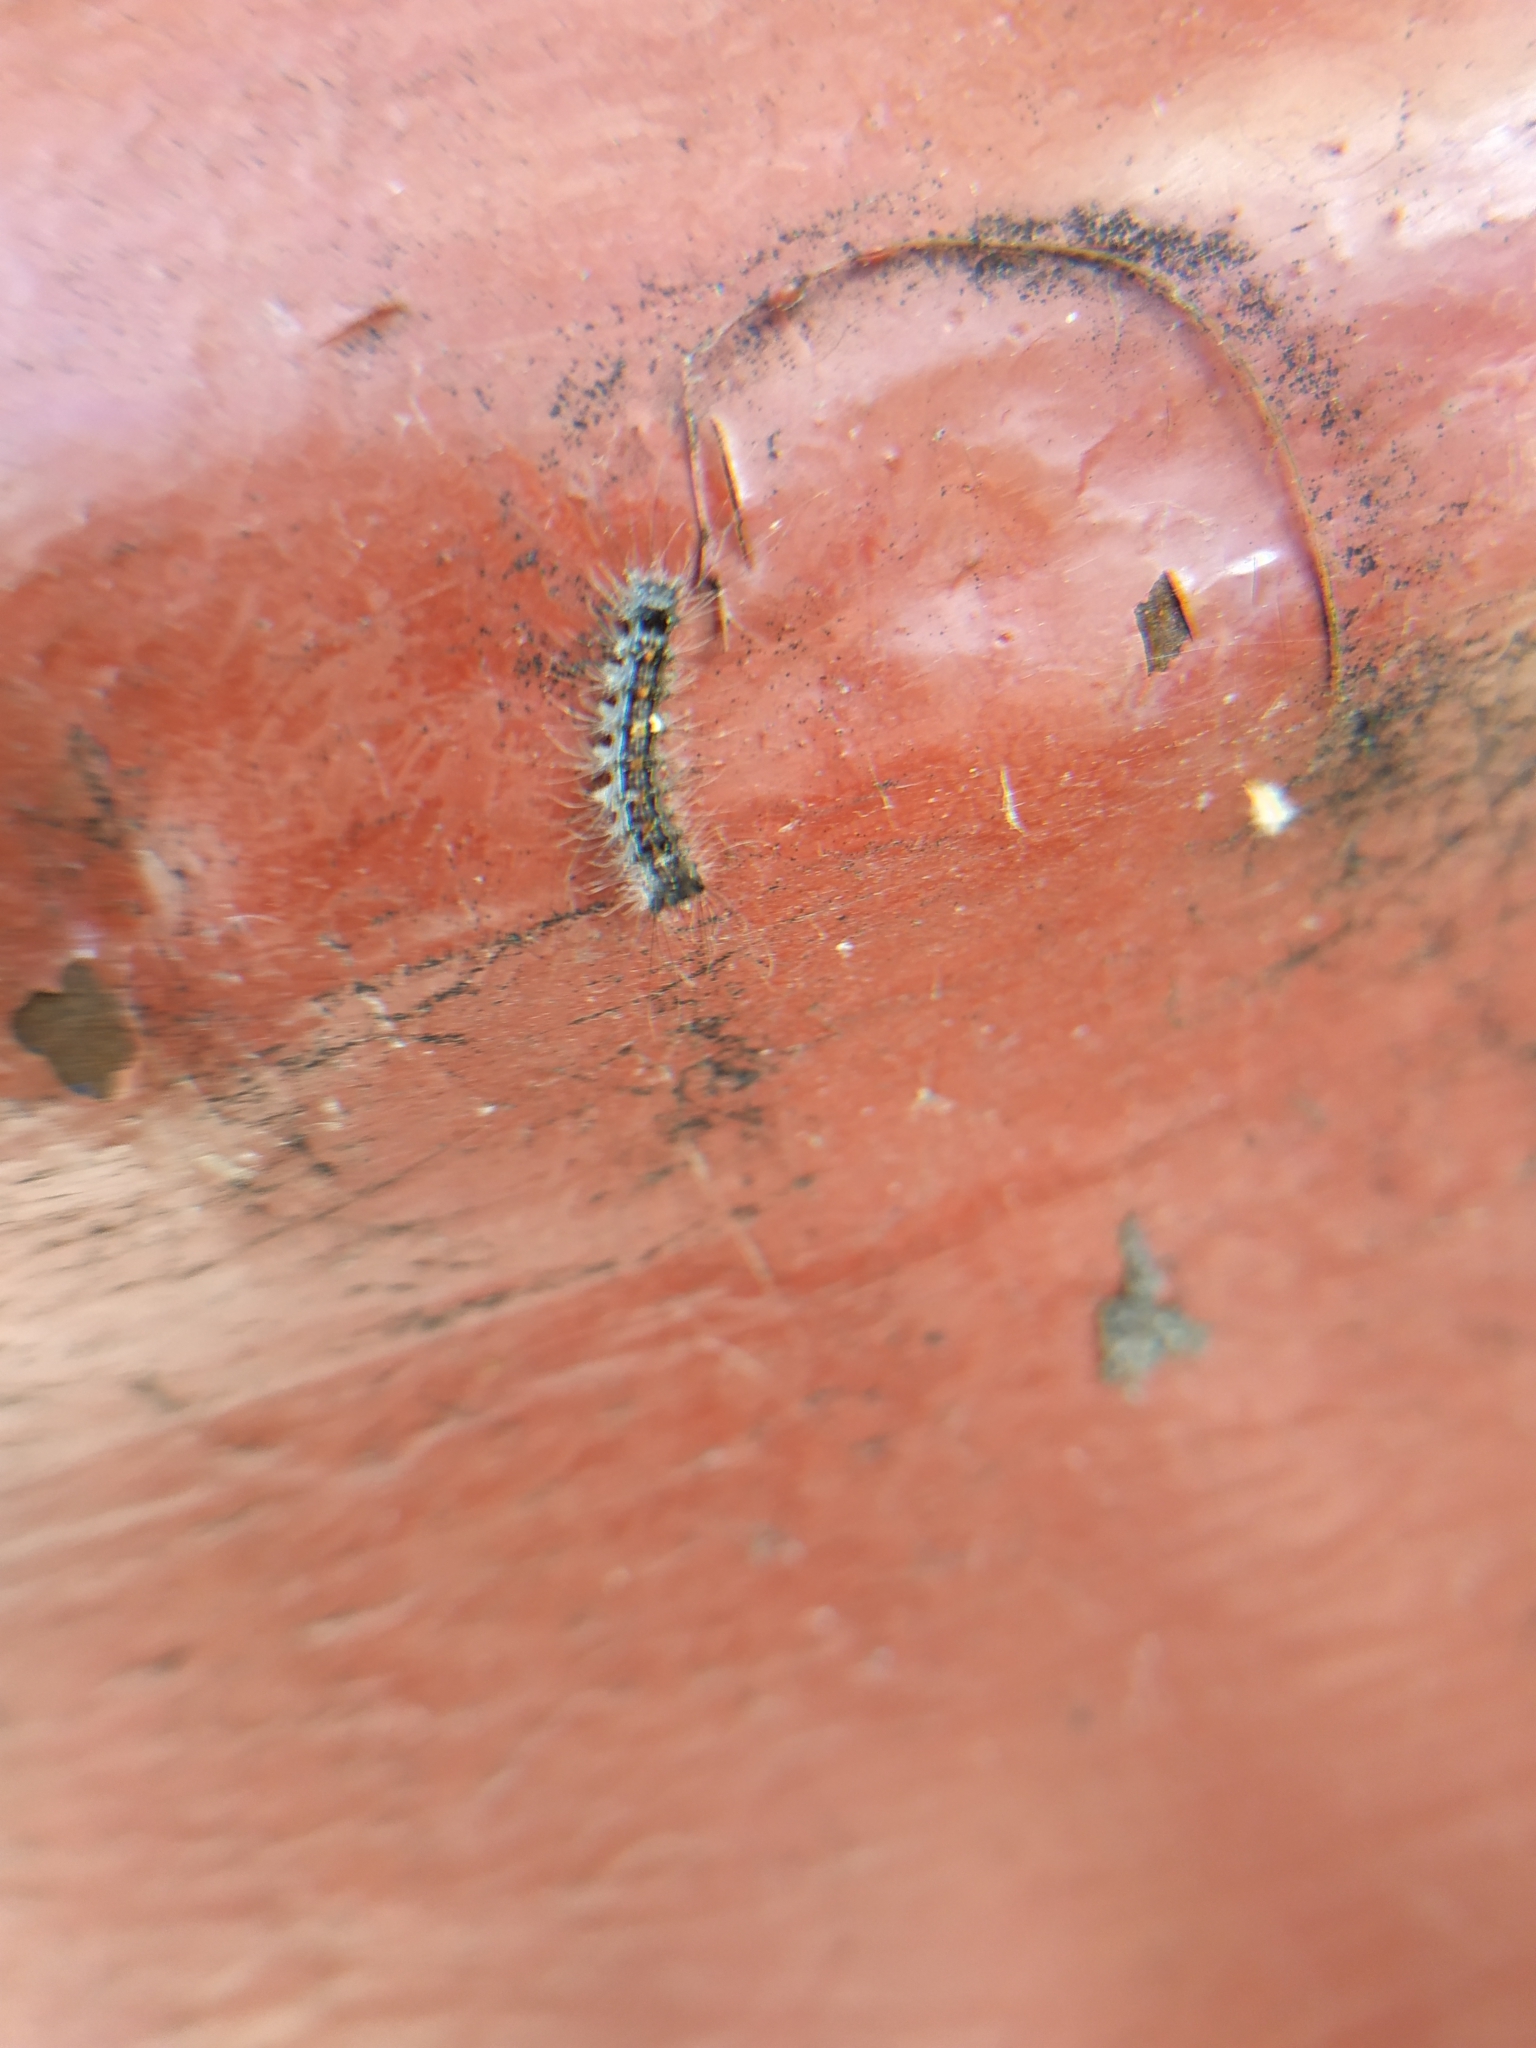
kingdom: Animalia
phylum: Arthropoda
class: Insecta
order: Lepidoptera
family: Erebidae
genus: Lymantria
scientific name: Lymantria dispar
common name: Gypsy moth
